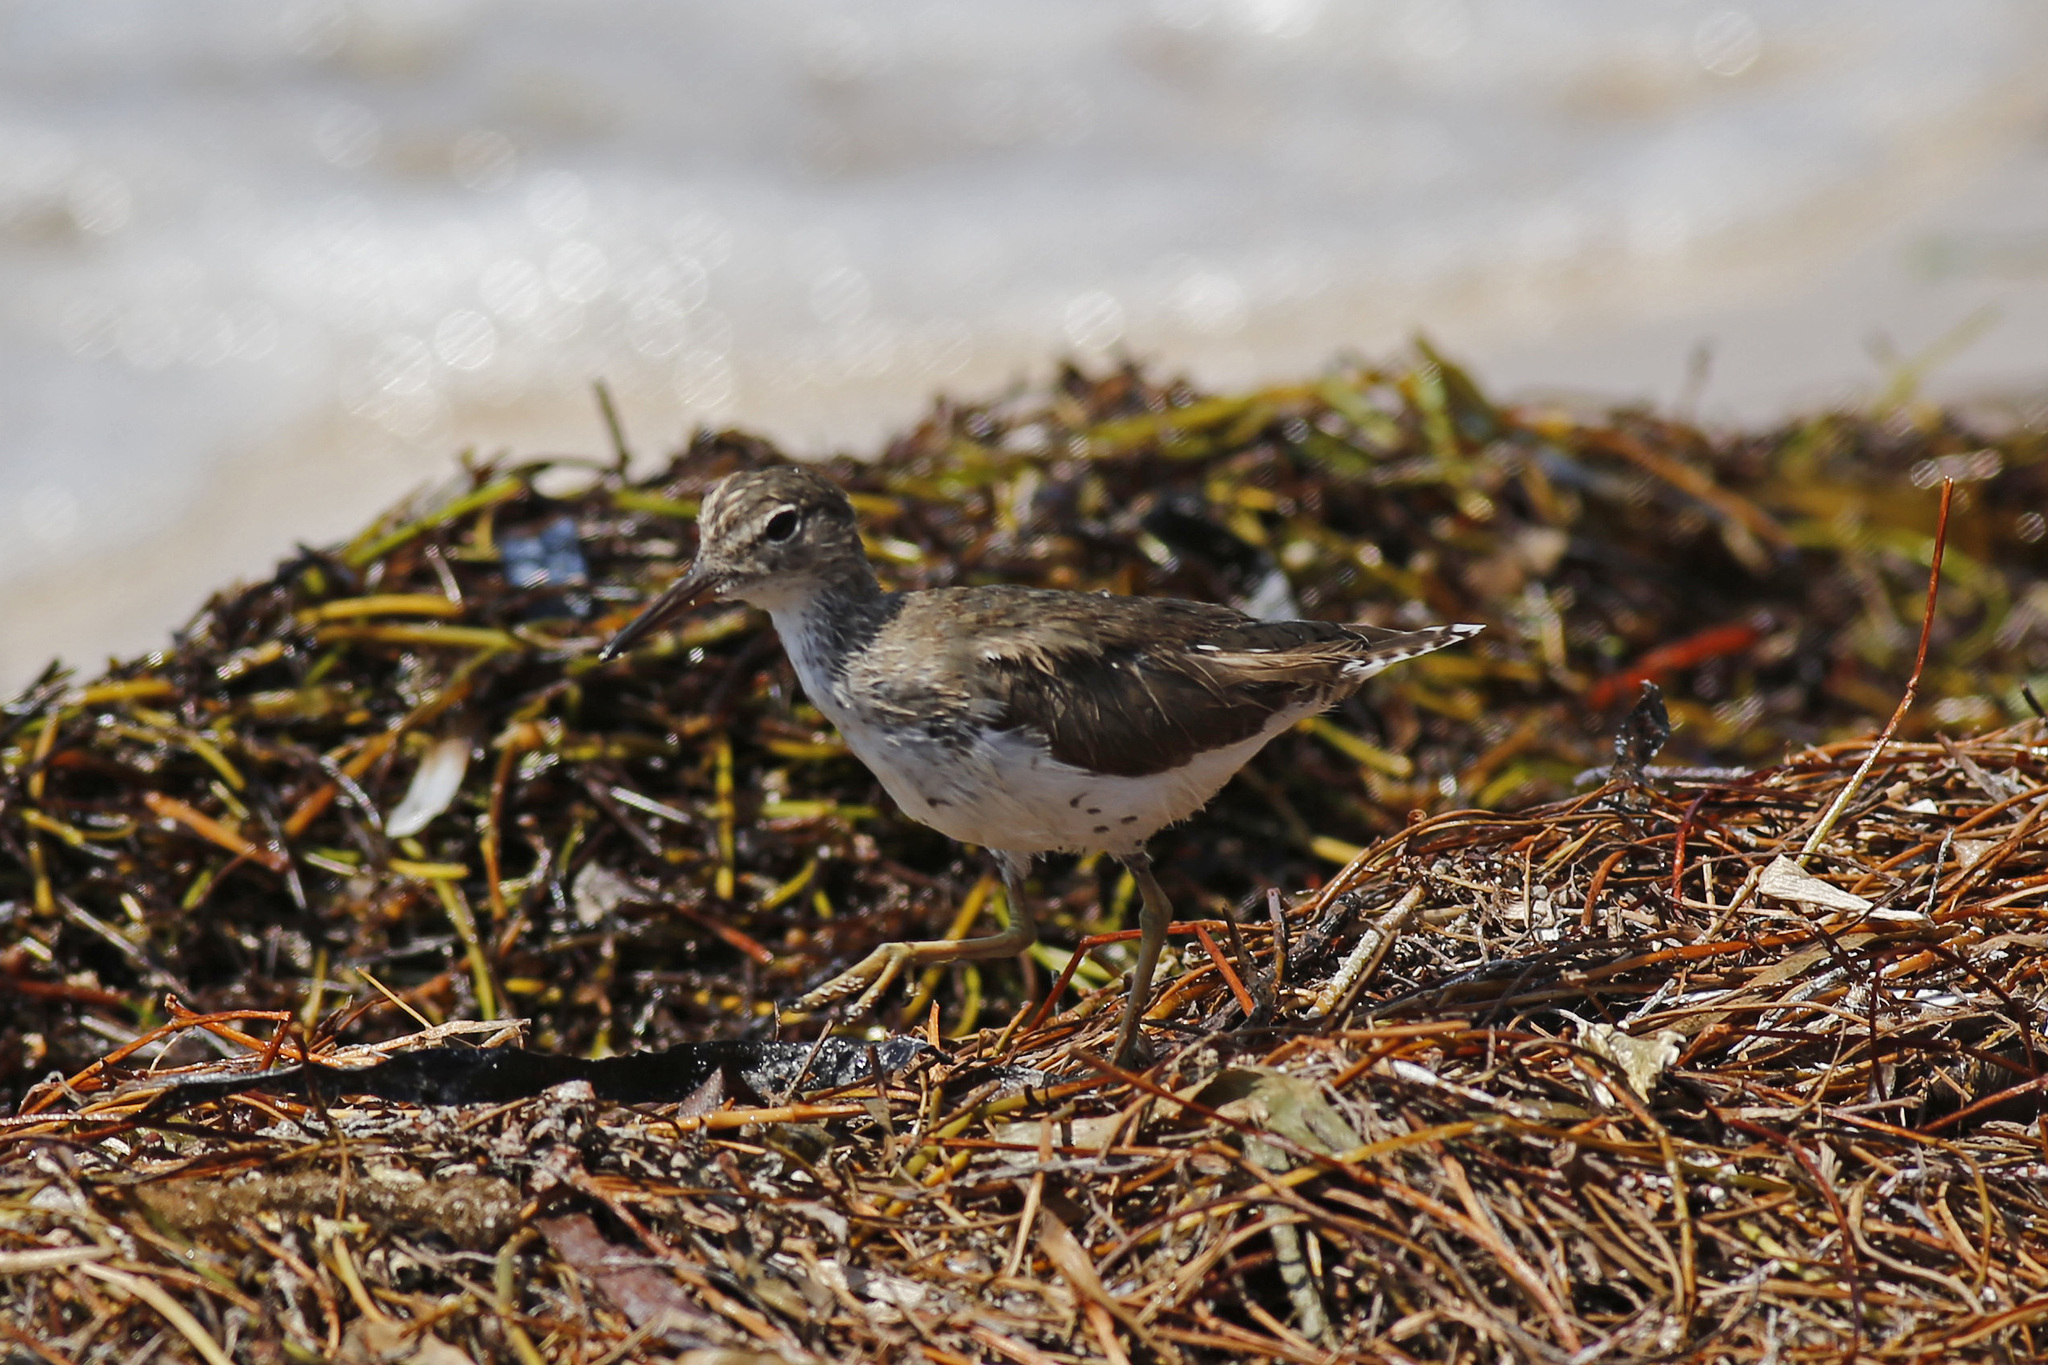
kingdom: Animalia
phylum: Chordata
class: Aves
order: Charadriiformes
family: Scolopacidae
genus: Actitis
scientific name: Actitis macularius
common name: Spotted sandpiper
